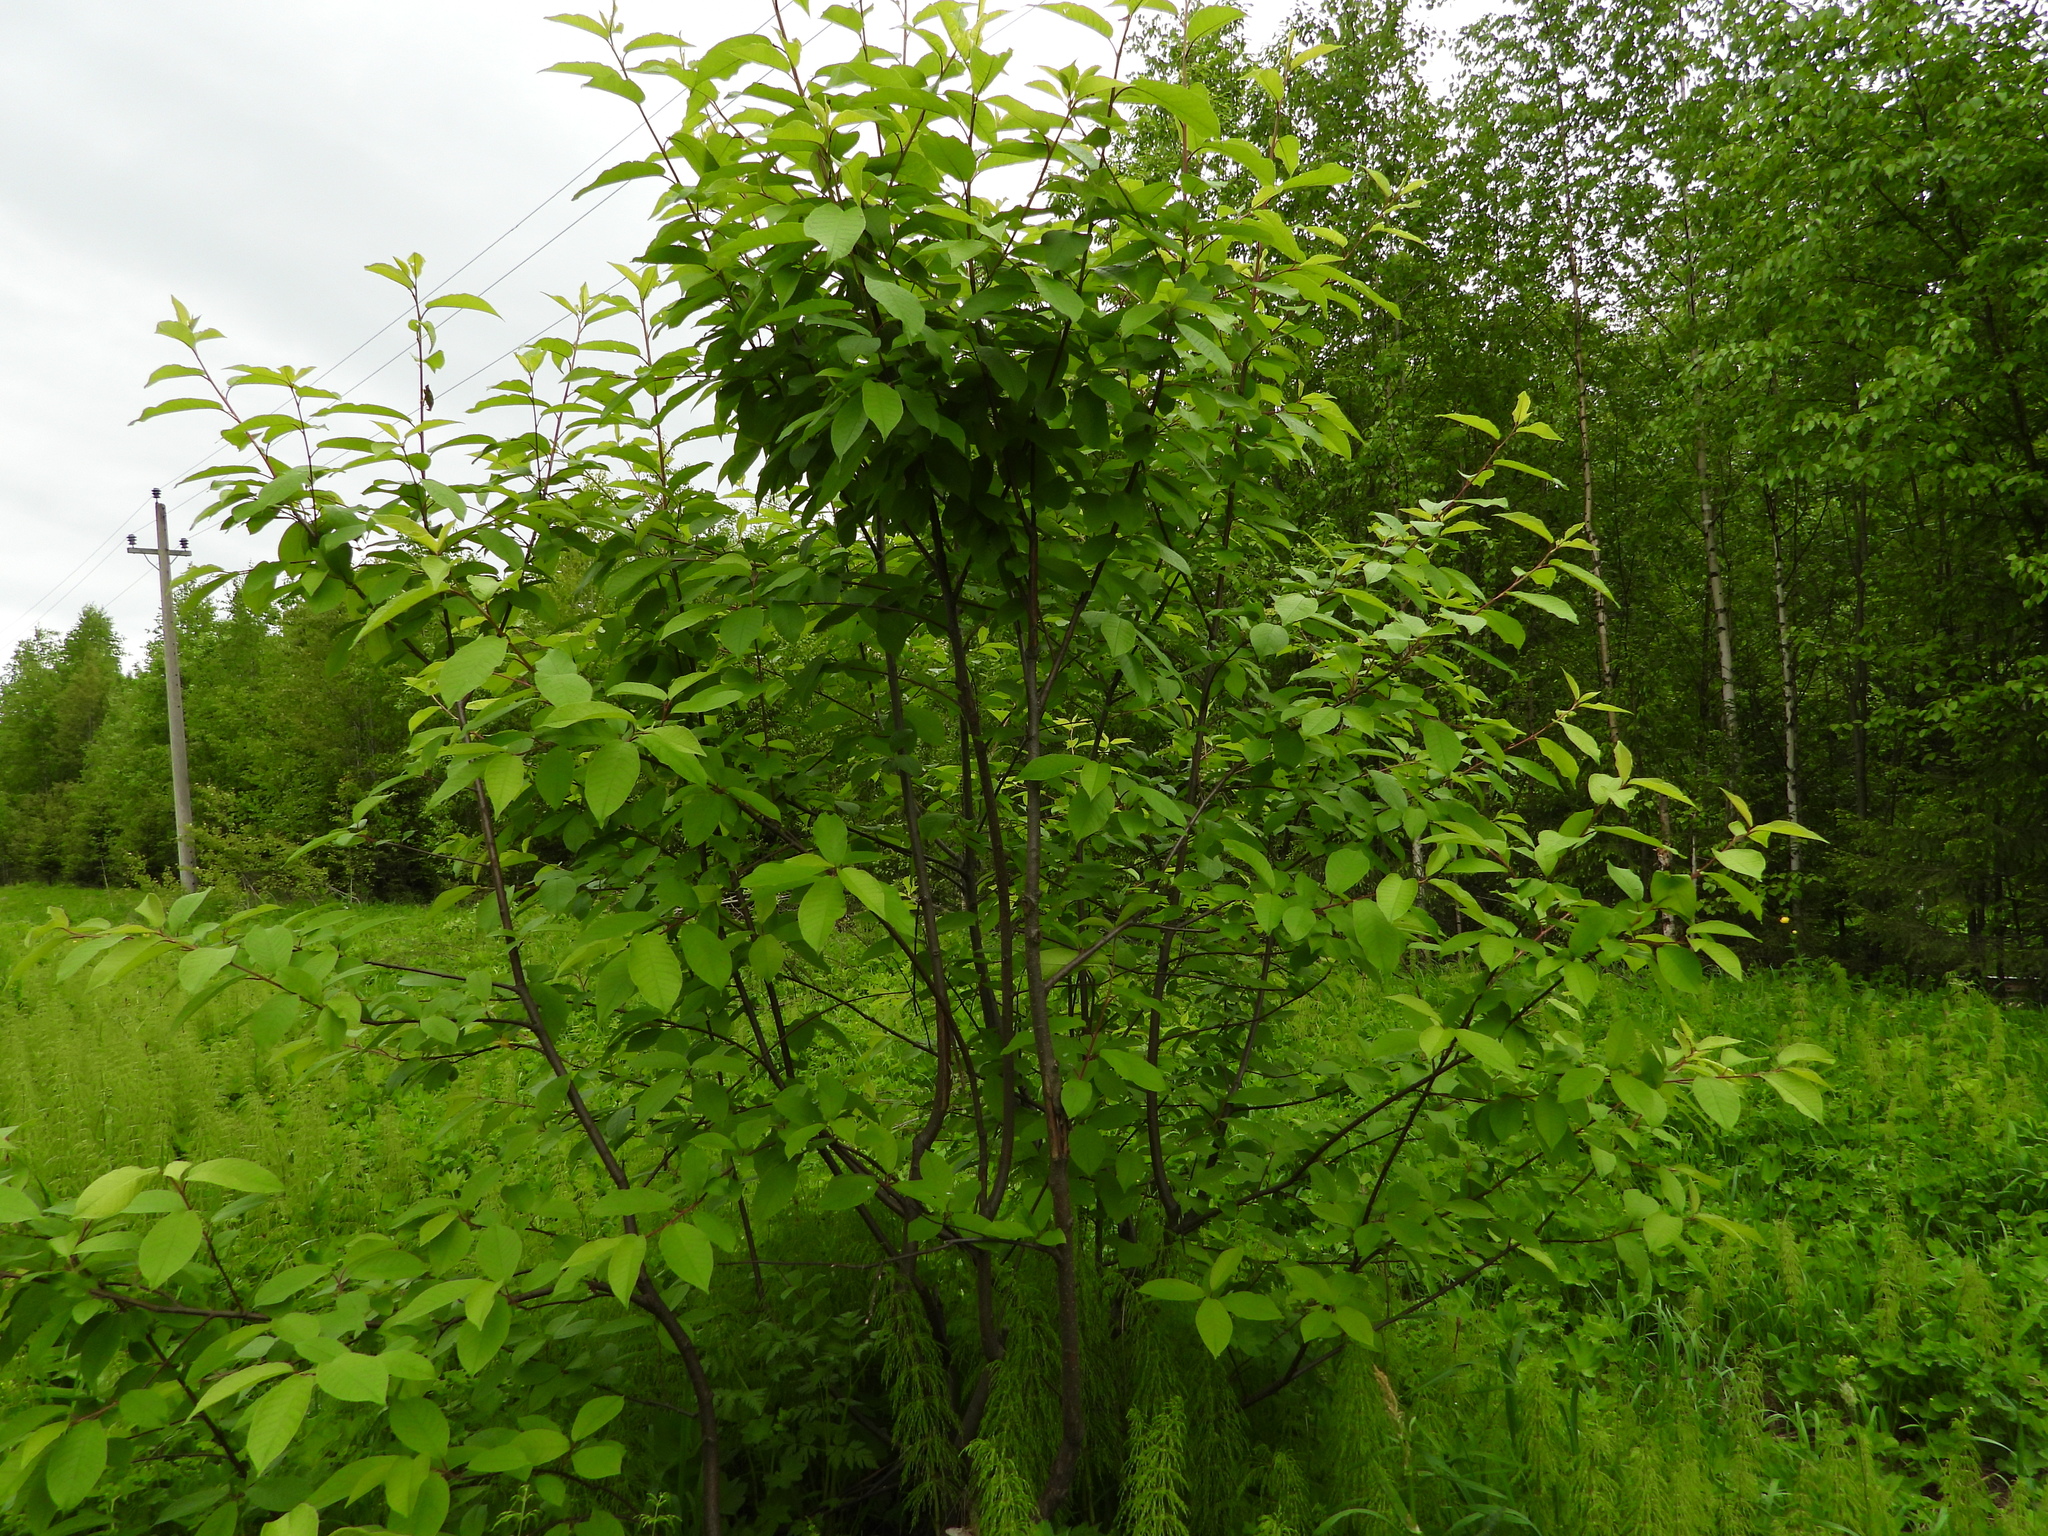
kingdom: Plantae
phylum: Tracheophyta
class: Magnoliopsida
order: Rosales
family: Rosaceae
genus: Prunus
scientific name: Prunus padus
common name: Bird cherry
